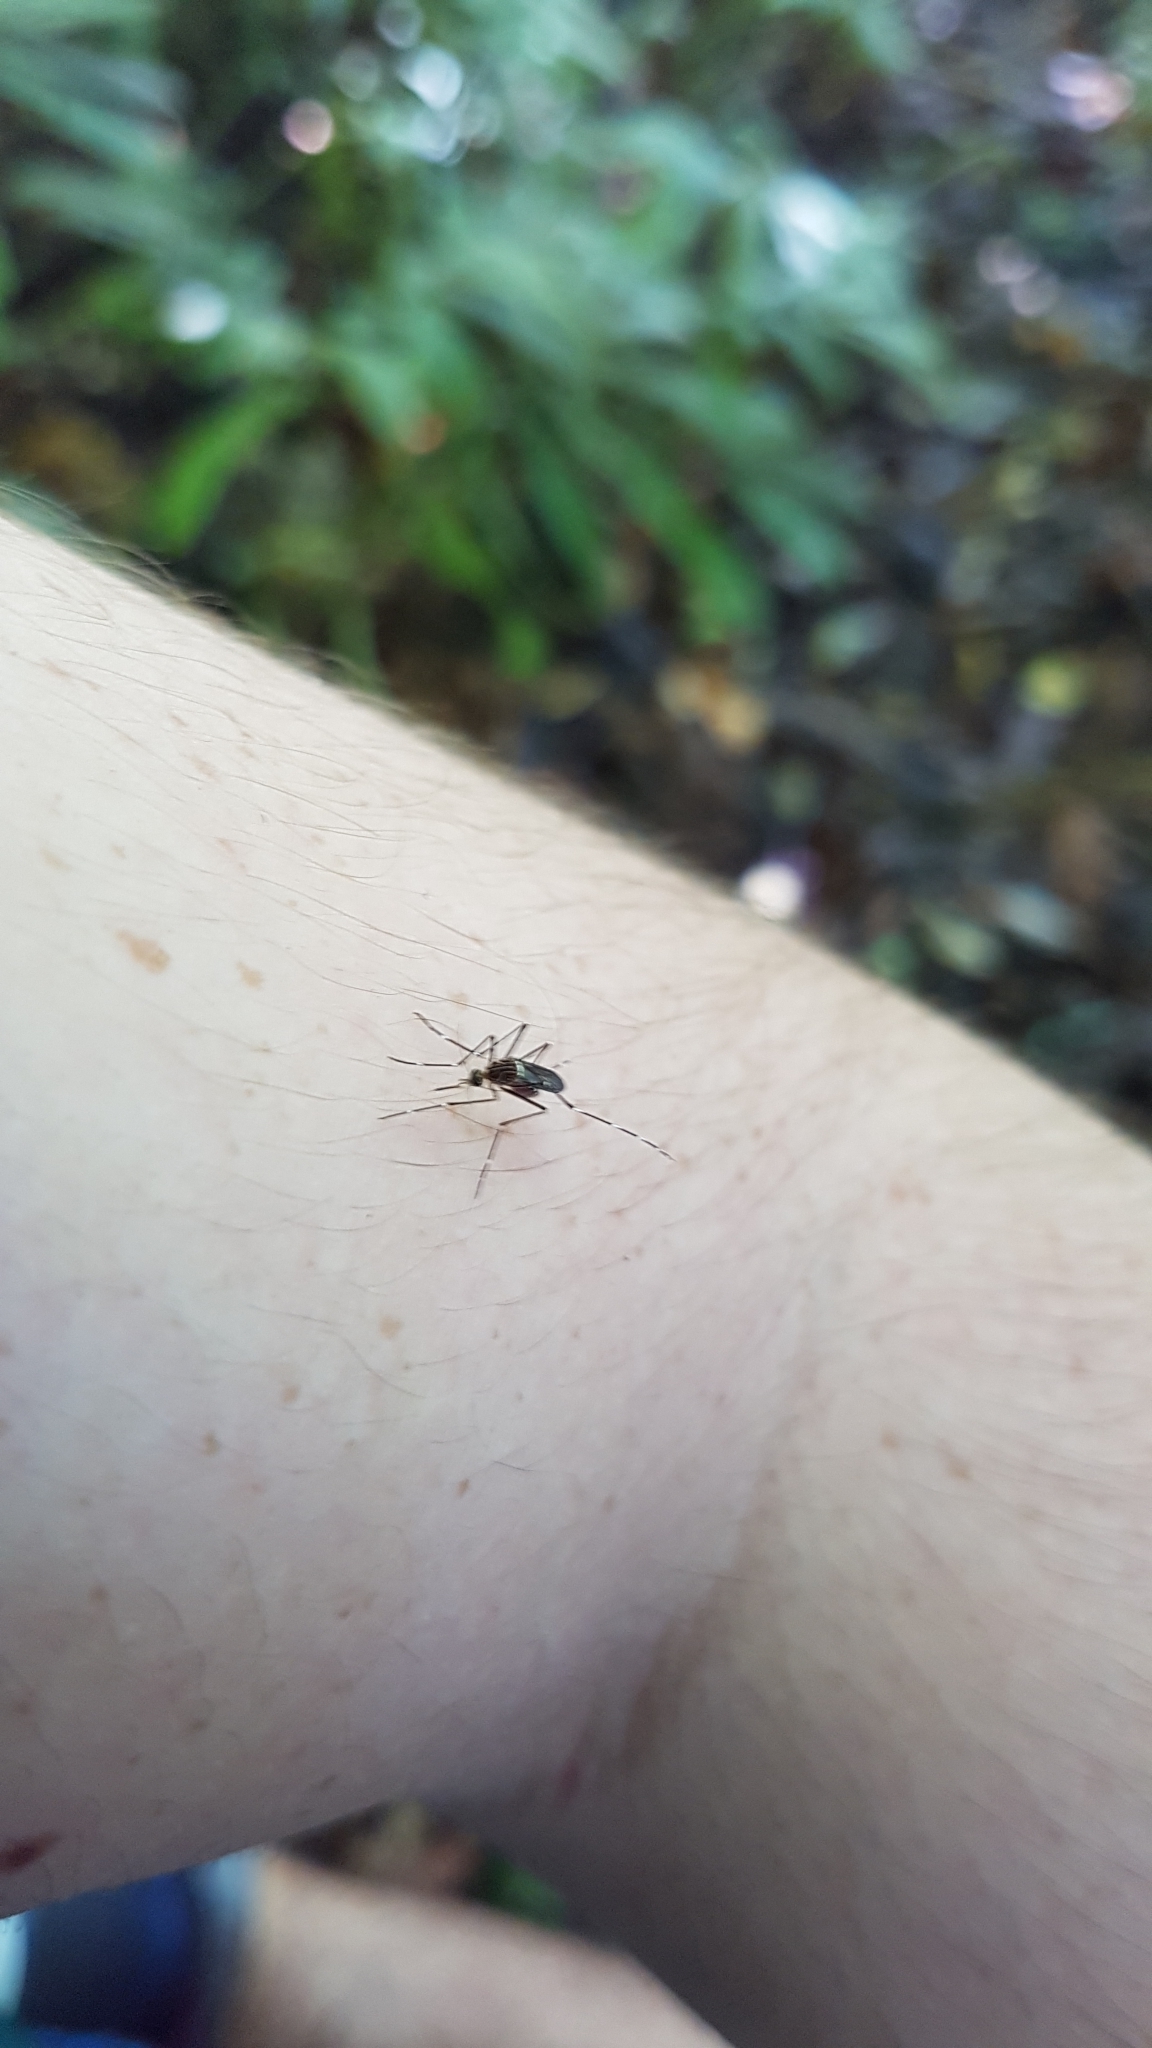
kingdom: Animalia
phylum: Arthropoda
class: Insecta
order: Diptera
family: Culicidae
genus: Aedes
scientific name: Aedes notoscriptus
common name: Australian backyard mosquito
